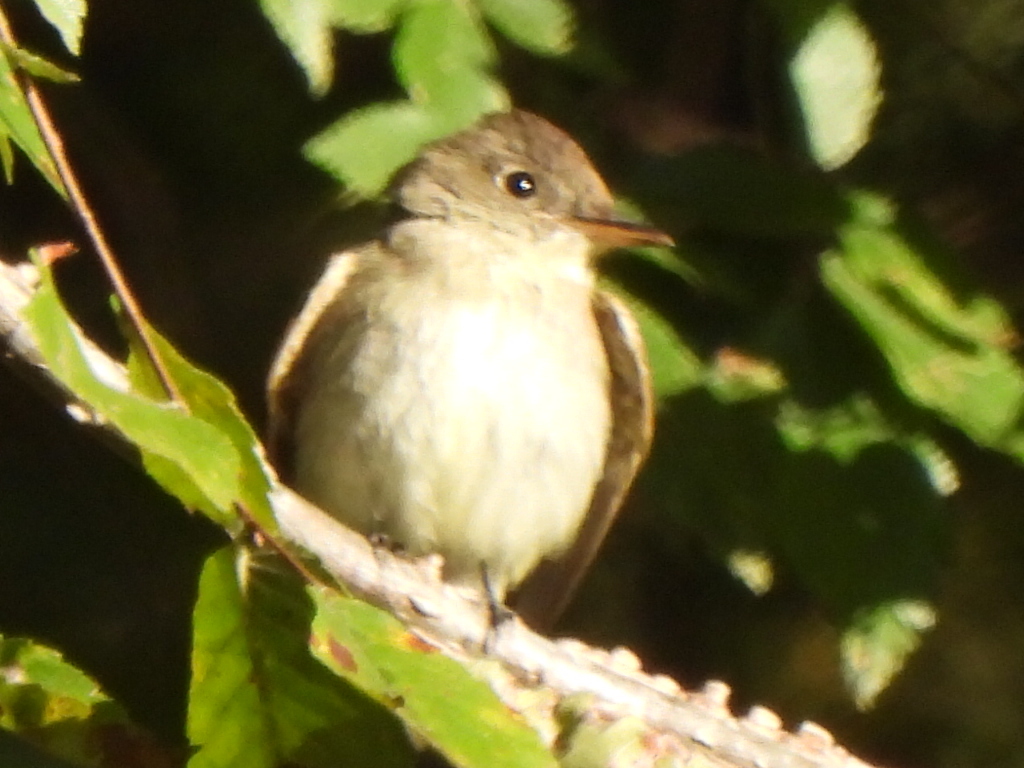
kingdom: Animalia
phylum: Chordata
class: Aves
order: Passeriformes
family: Tyrannidae
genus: Contopus
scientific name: Contopus virens
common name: Eastern wood-pewee
